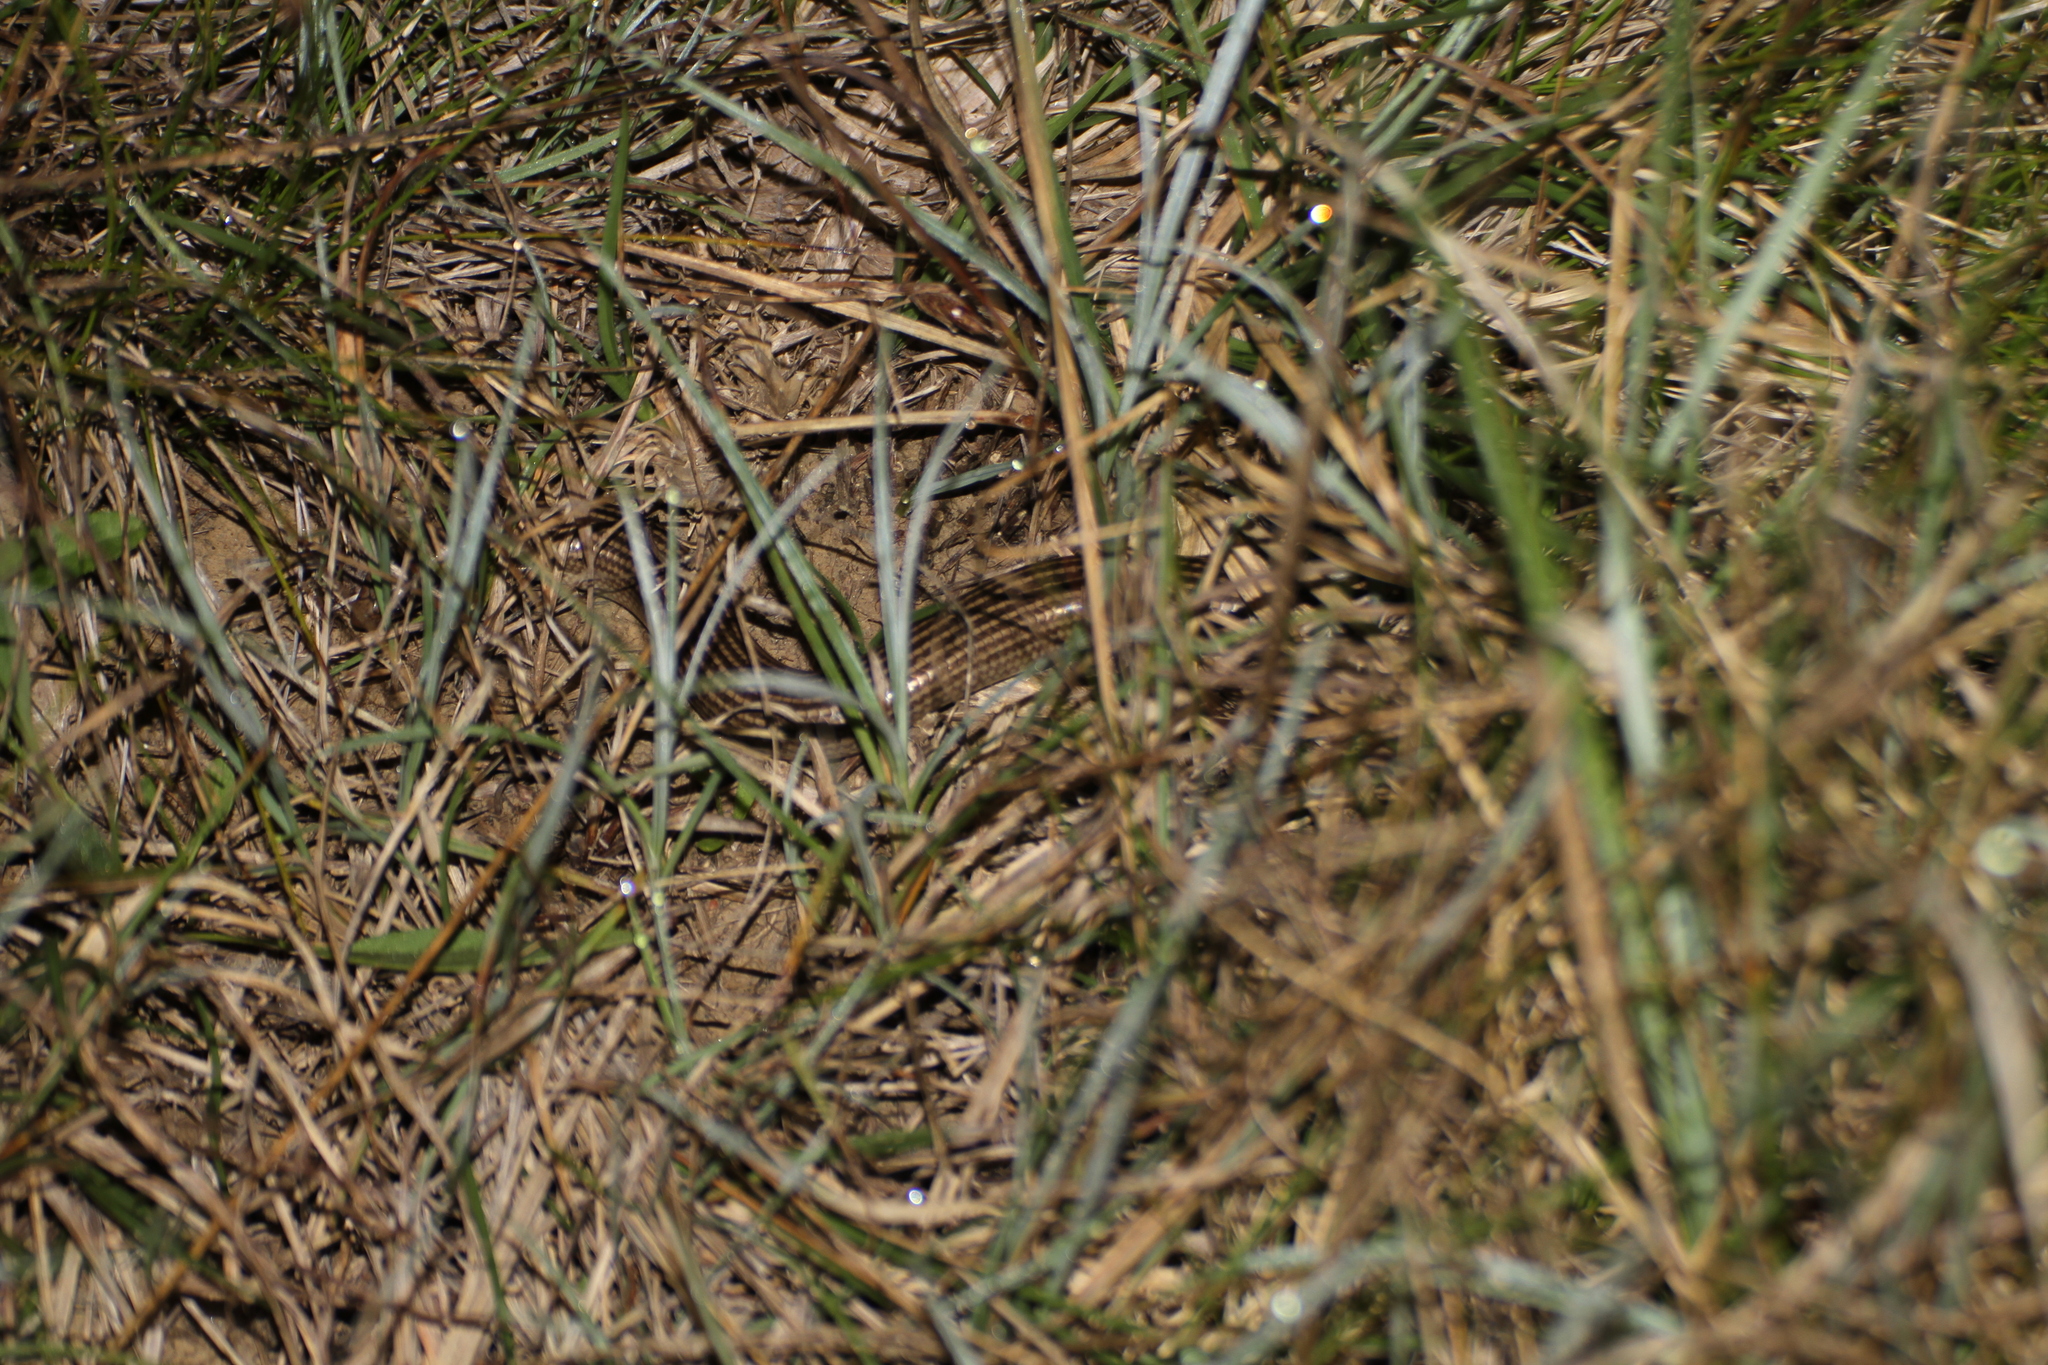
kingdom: Animalia
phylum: Chordata
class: Squamata
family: Scincidae
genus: Chalcides
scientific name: Chalcides striatus
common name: Western (or iberian) three-toed skink
